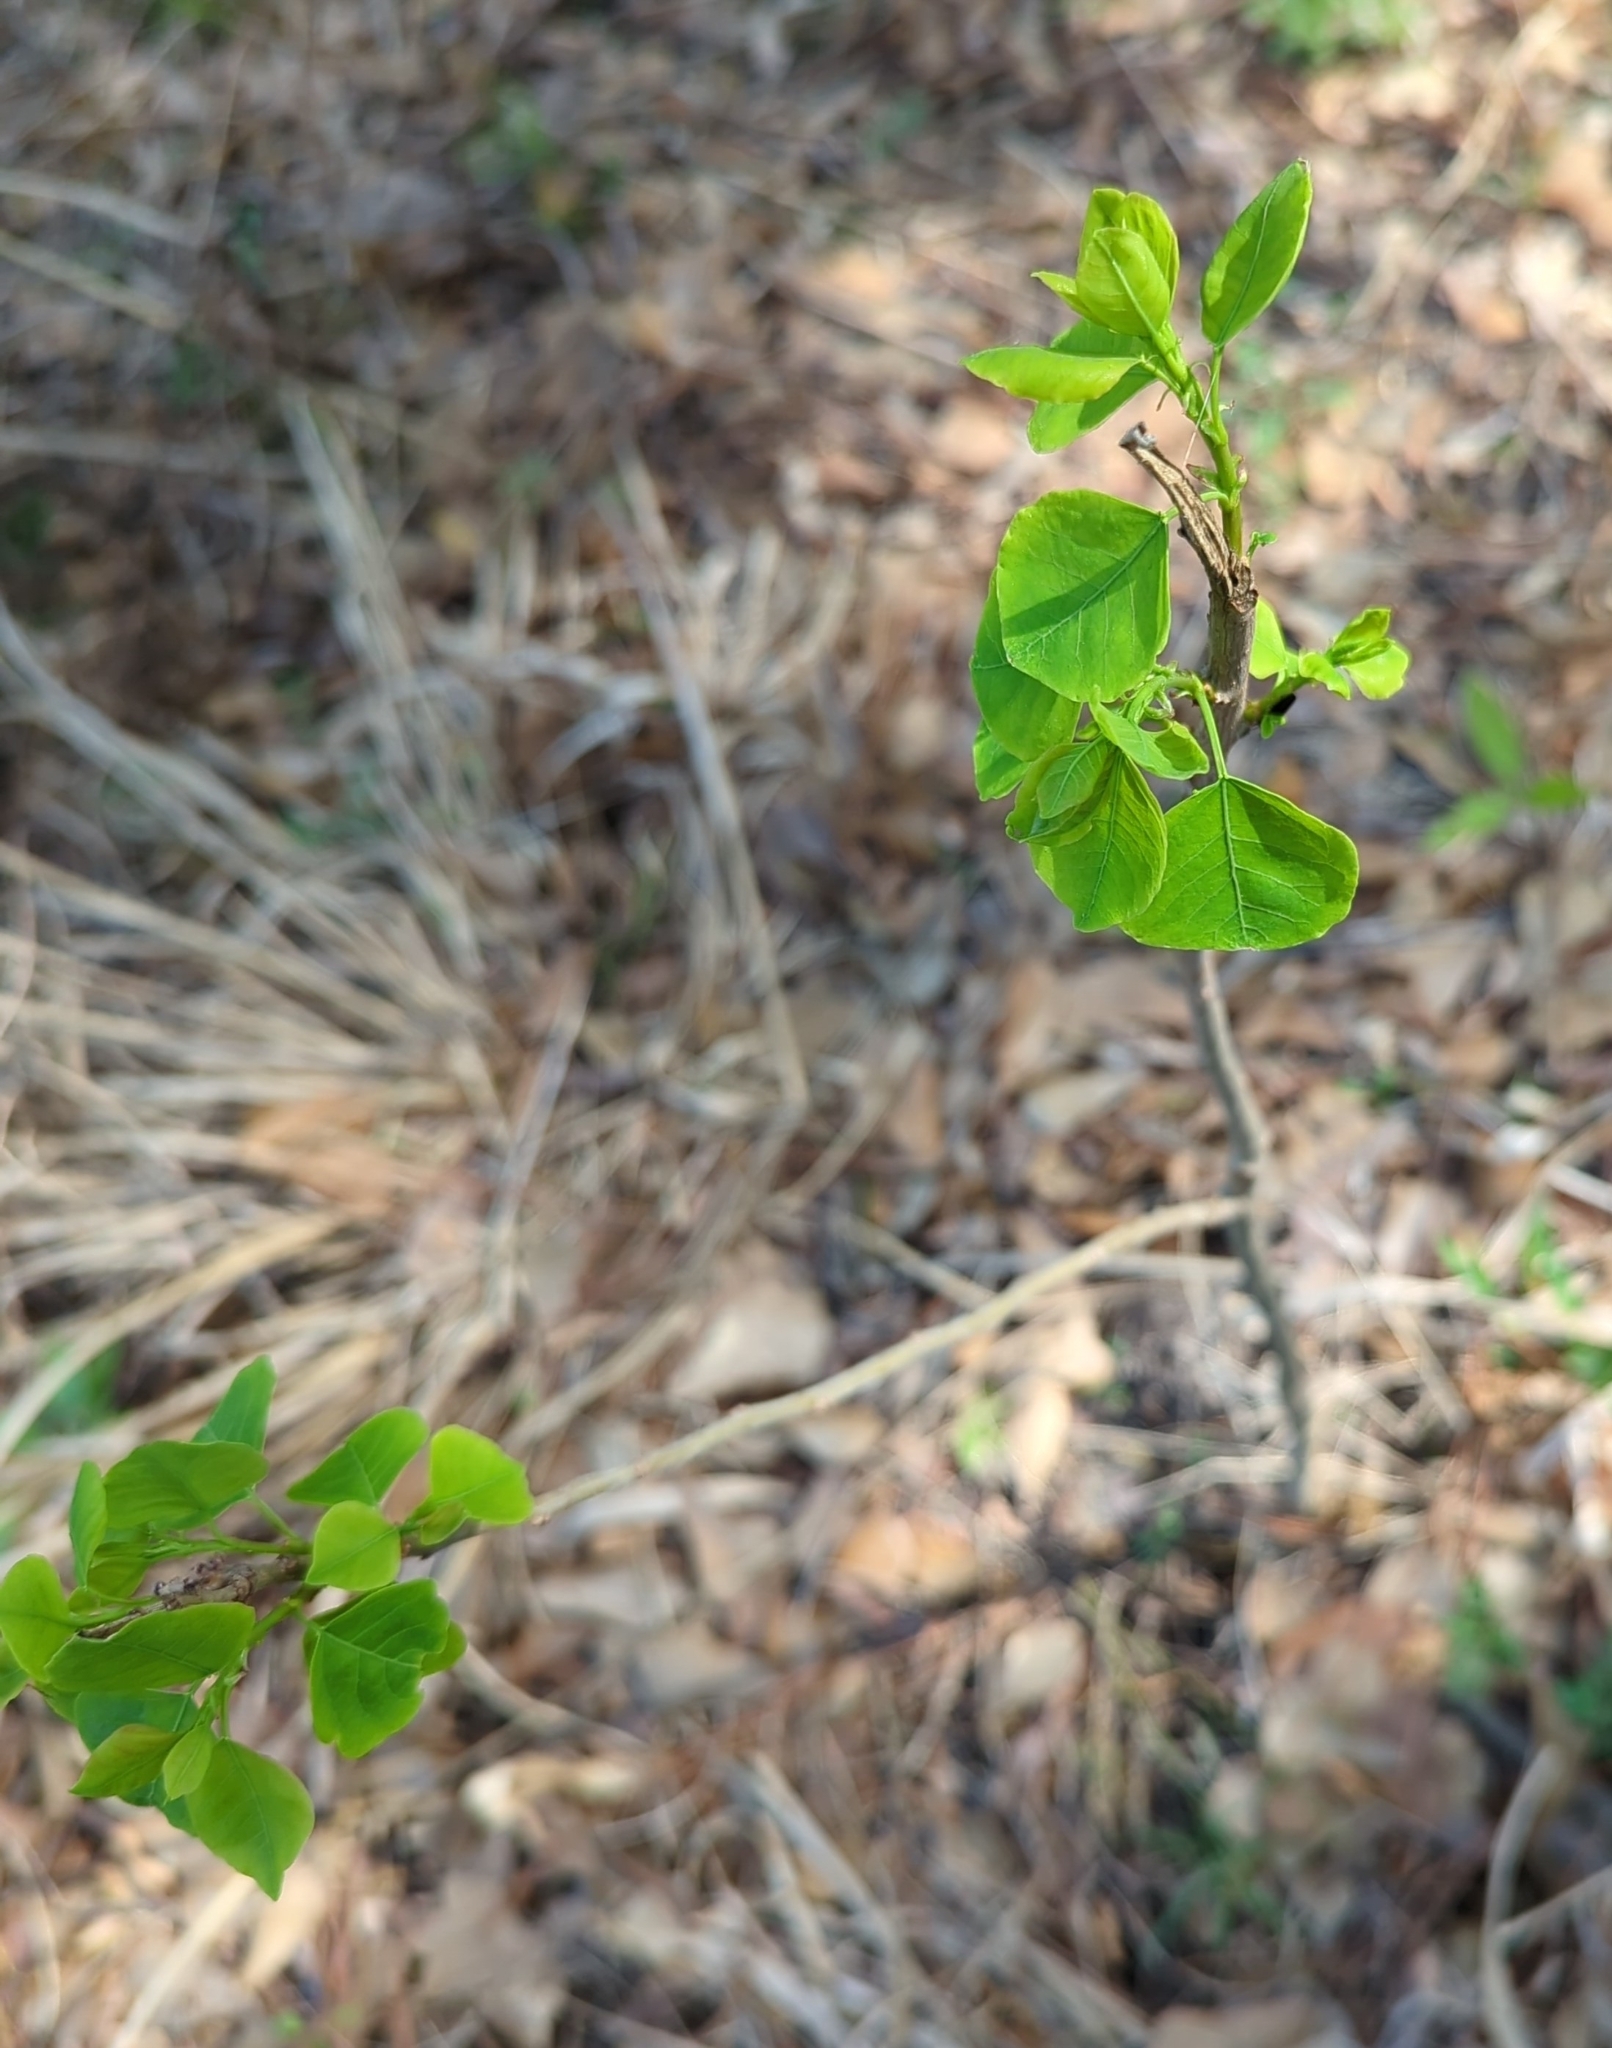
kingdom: Plantae
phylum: Tracheophyta
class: Magnoliopsida
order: Malpighiales
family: Euphorbiaceae
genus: Triadica
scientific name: Triadica sebifera
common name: Chinese tallow
